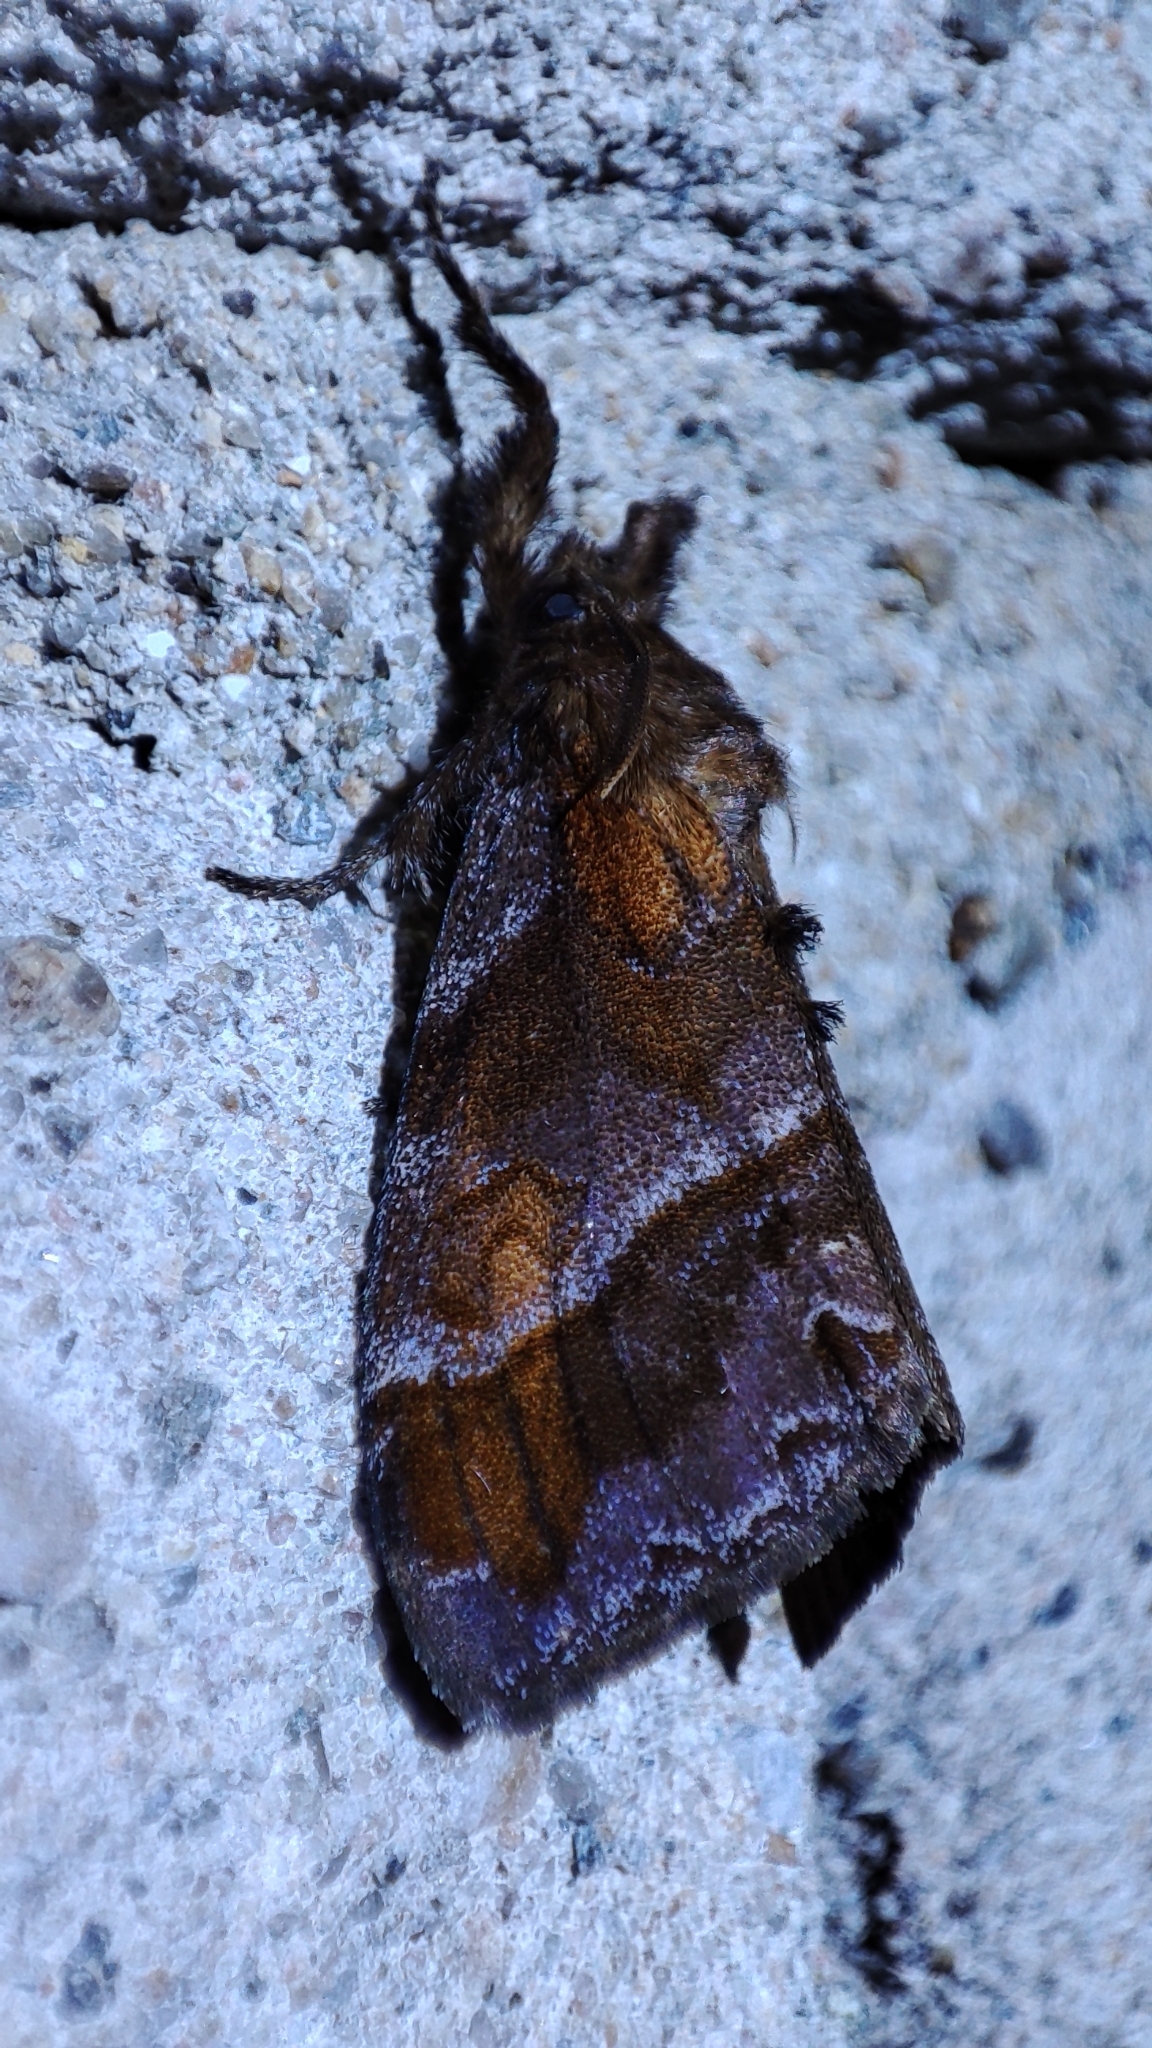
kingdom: Animalia
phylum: Arthropoda
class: Insecta
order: Lepidoptera
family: Erebidae
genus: Cifuna
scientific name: Cifuna locuples
